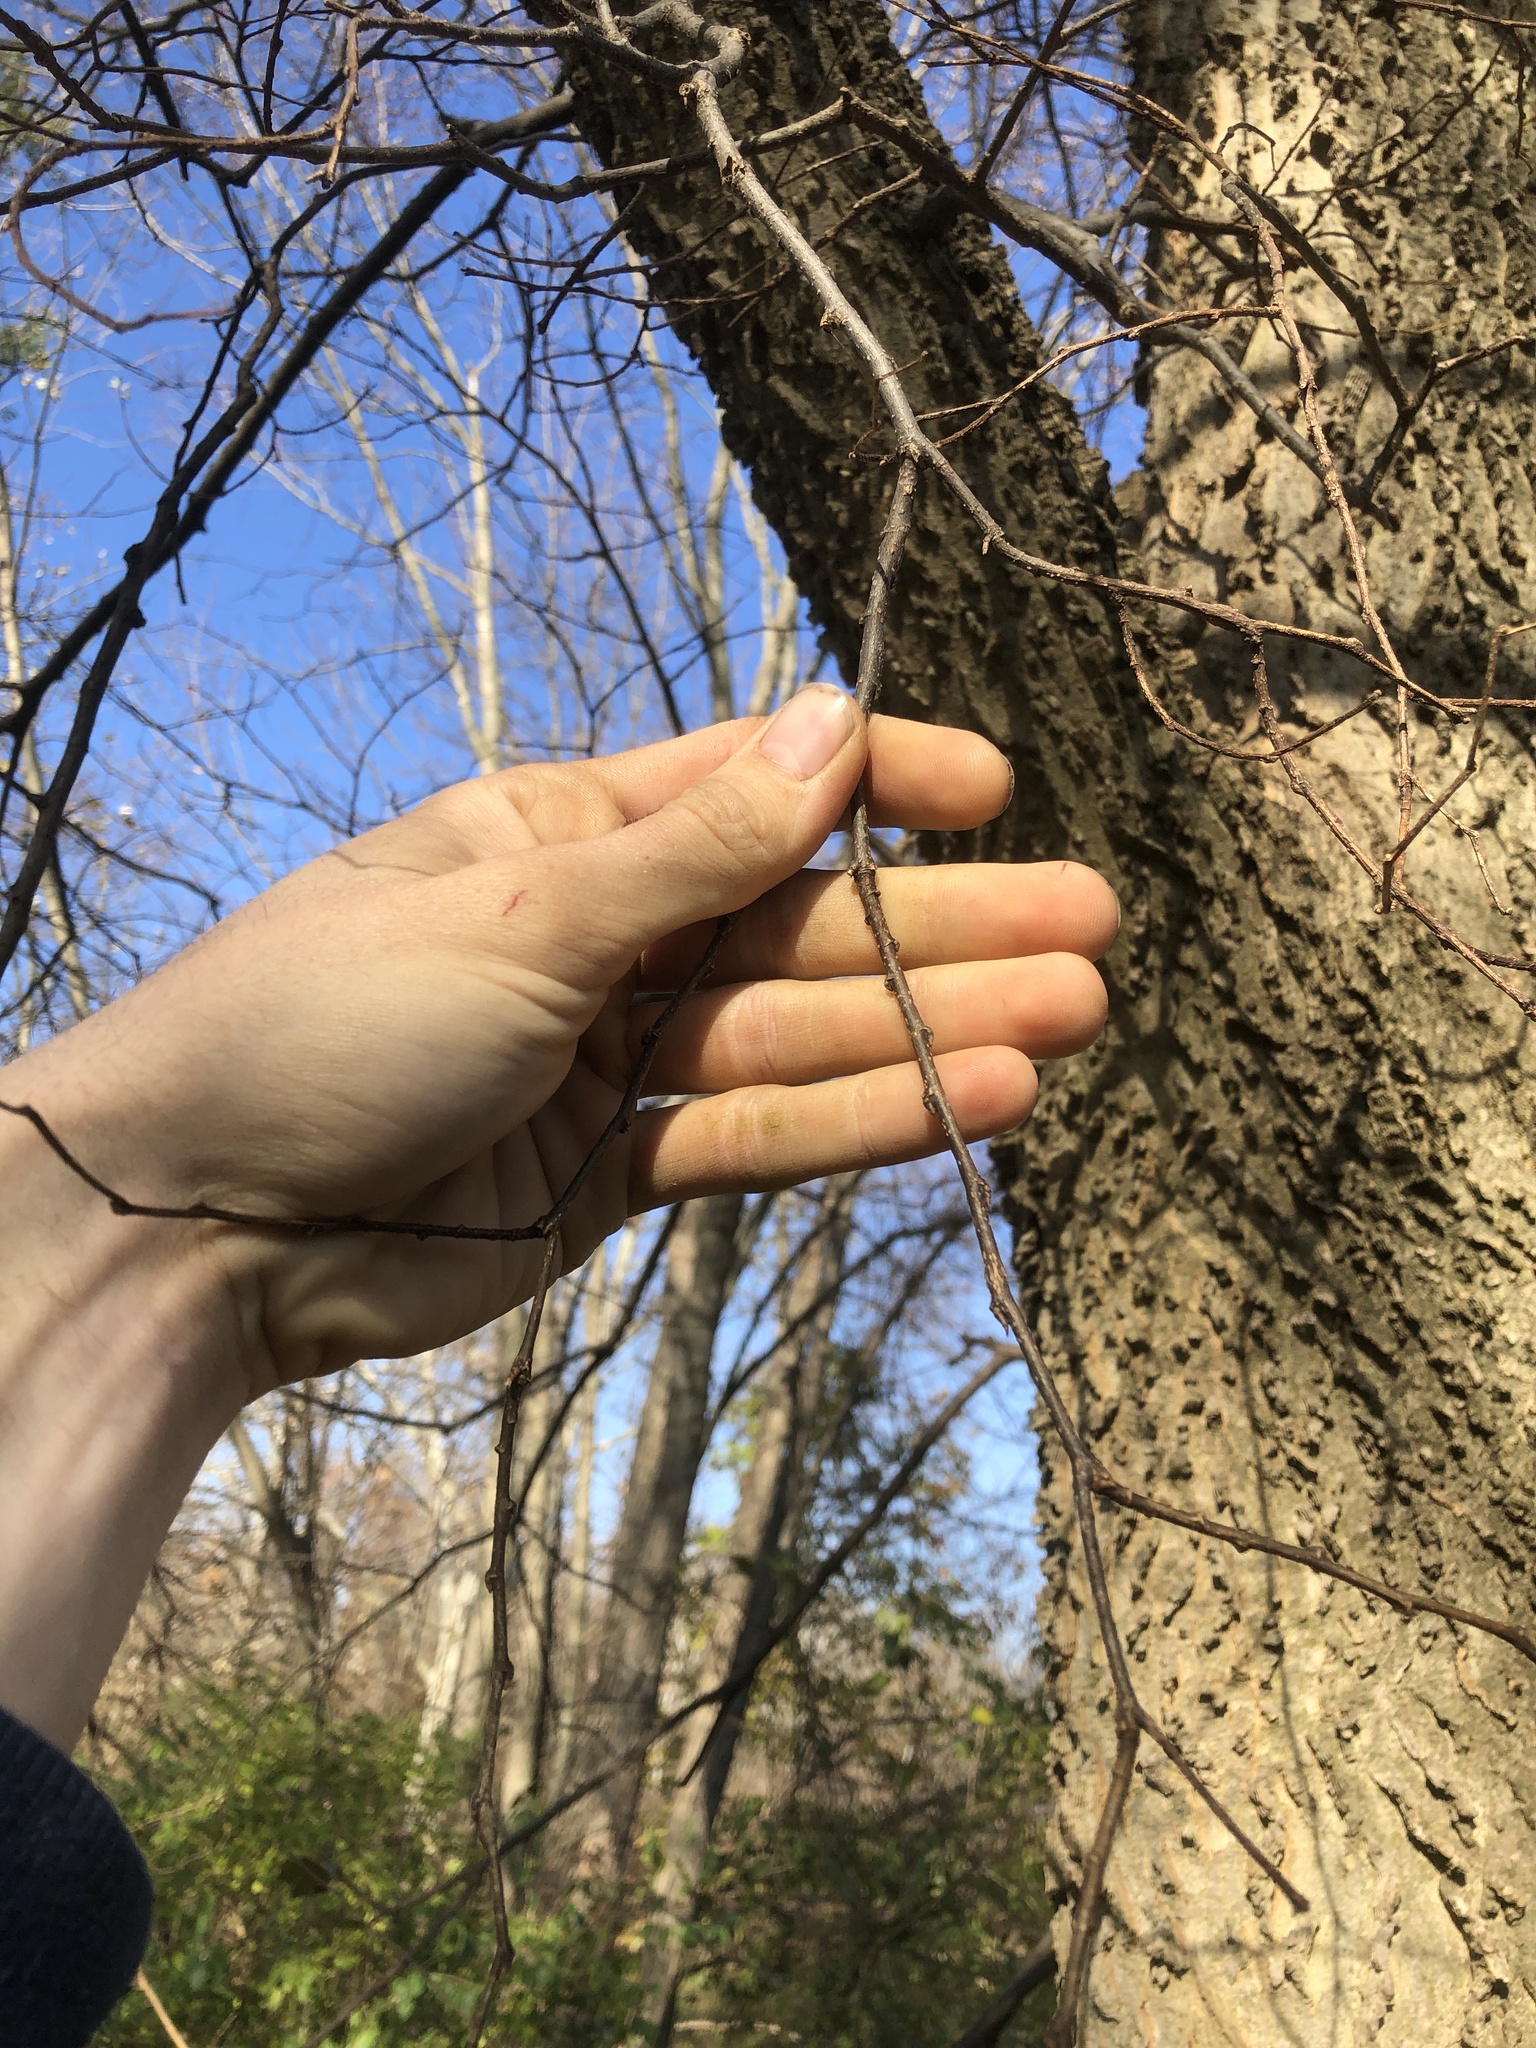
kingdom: Plantae
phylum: Tracheophyta
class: Magnoliopsida
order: Rosales
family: Cannabaceae
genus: Celtis
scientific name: Celtis occidentalis
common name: Common hackberry
